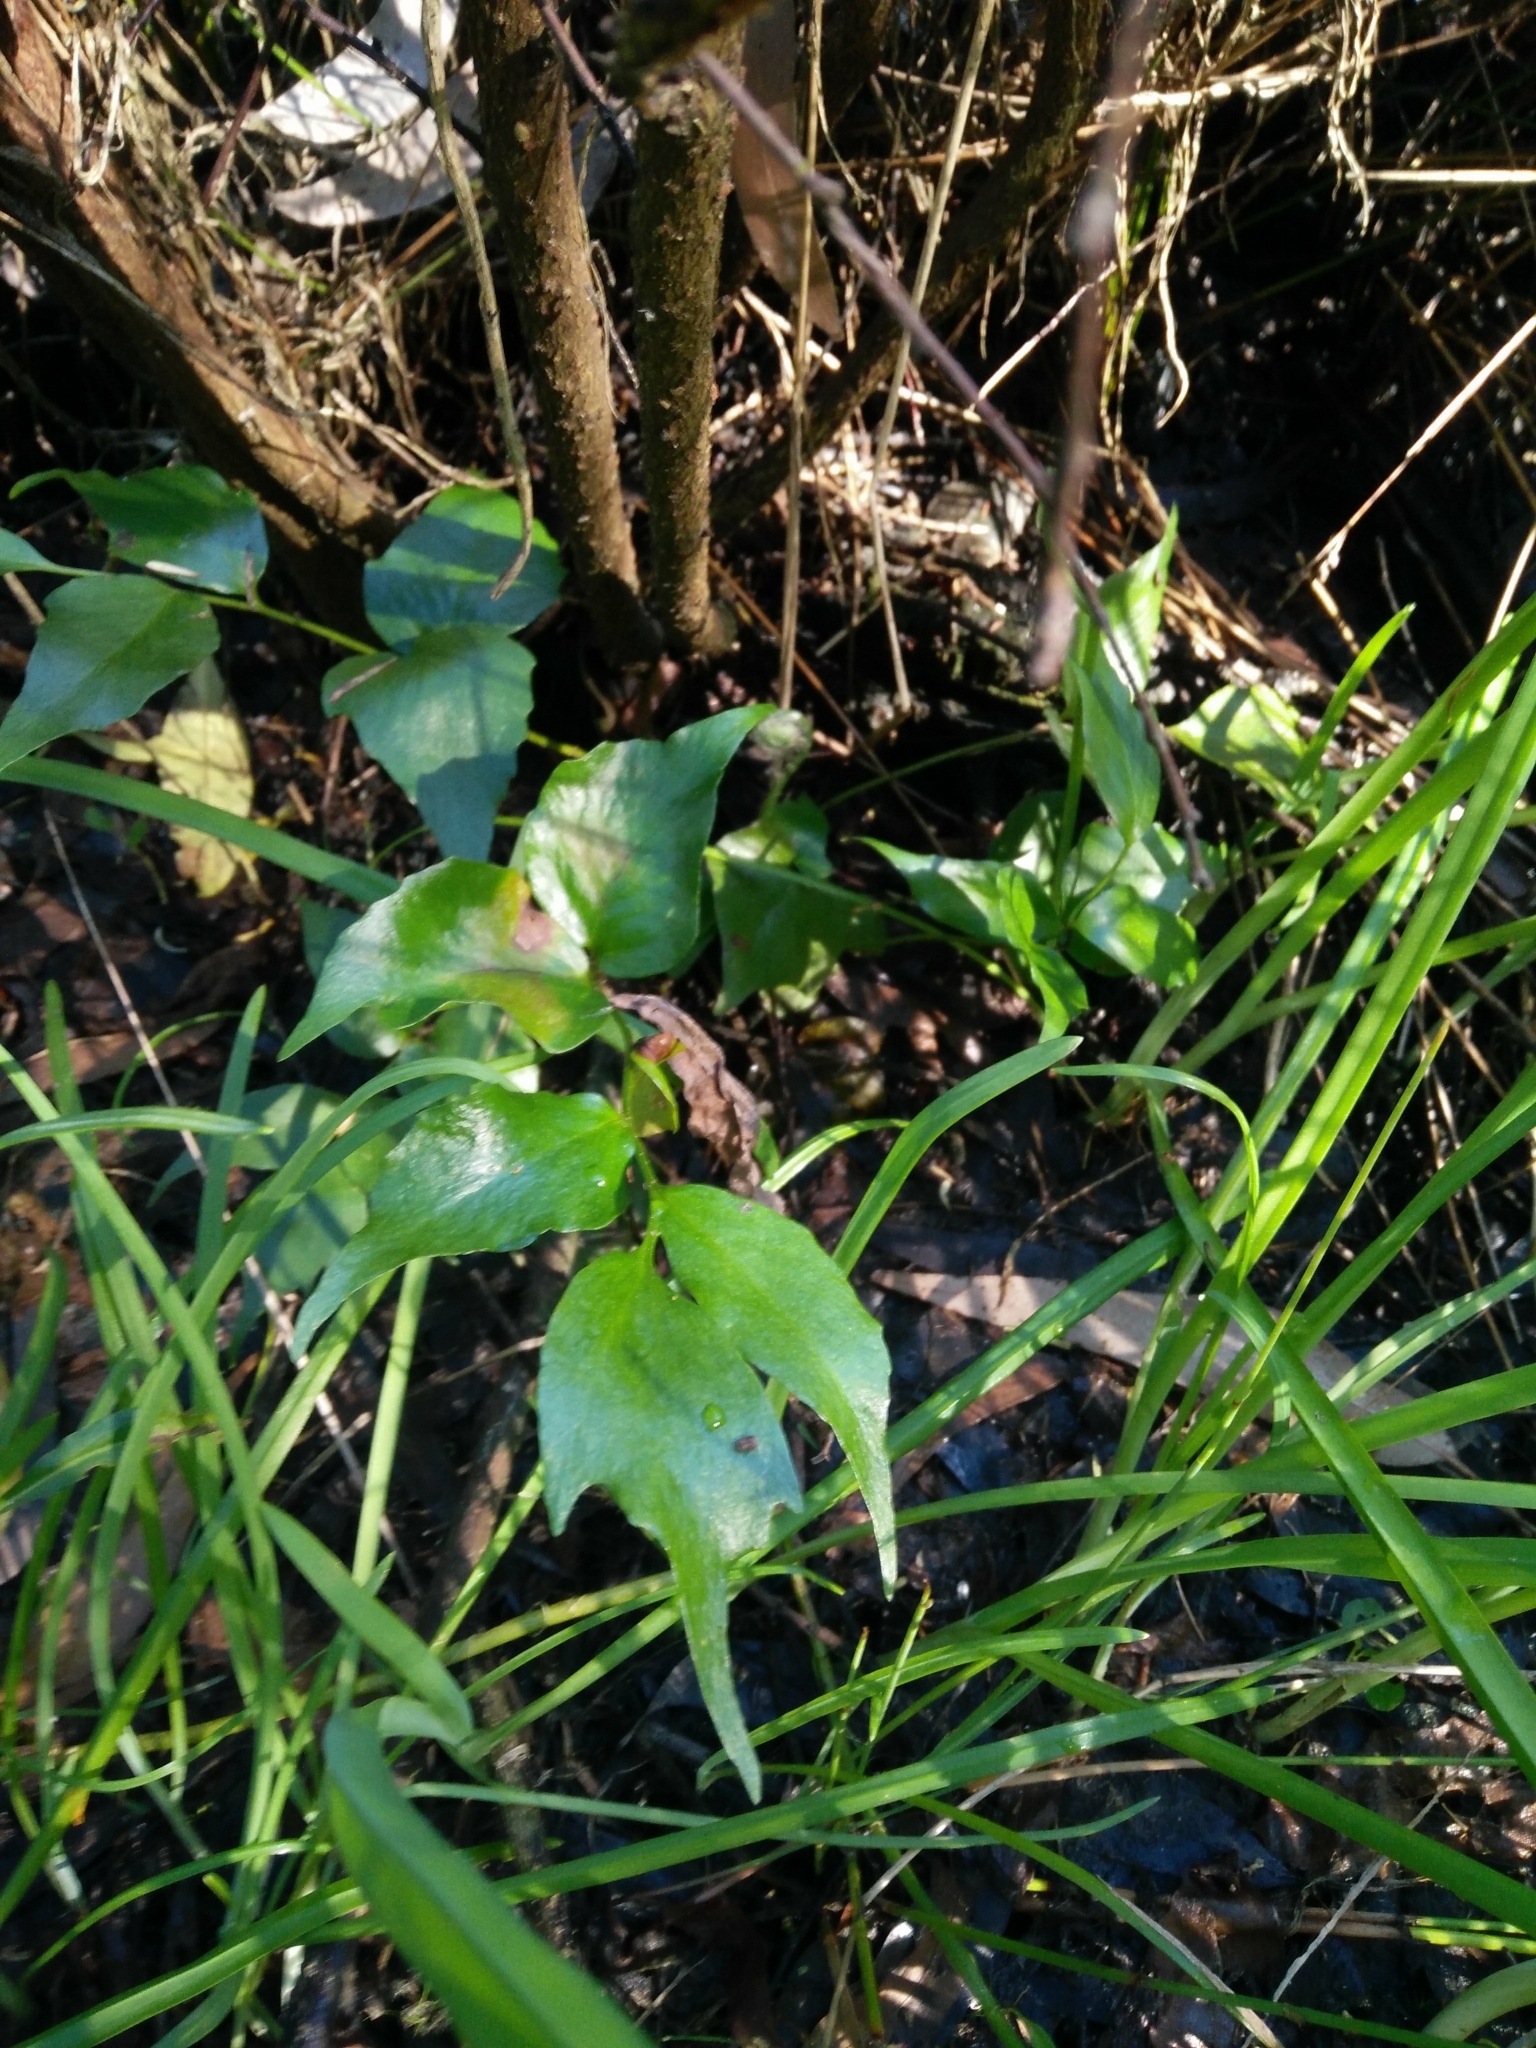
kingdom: Plantae
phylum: Tracheophyta
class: Polypodiopsida
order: Polypodiales
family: Dryopteridaceae
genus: Cyrtomium
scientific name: Cyrtomium falcatum
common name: House holly-fern
